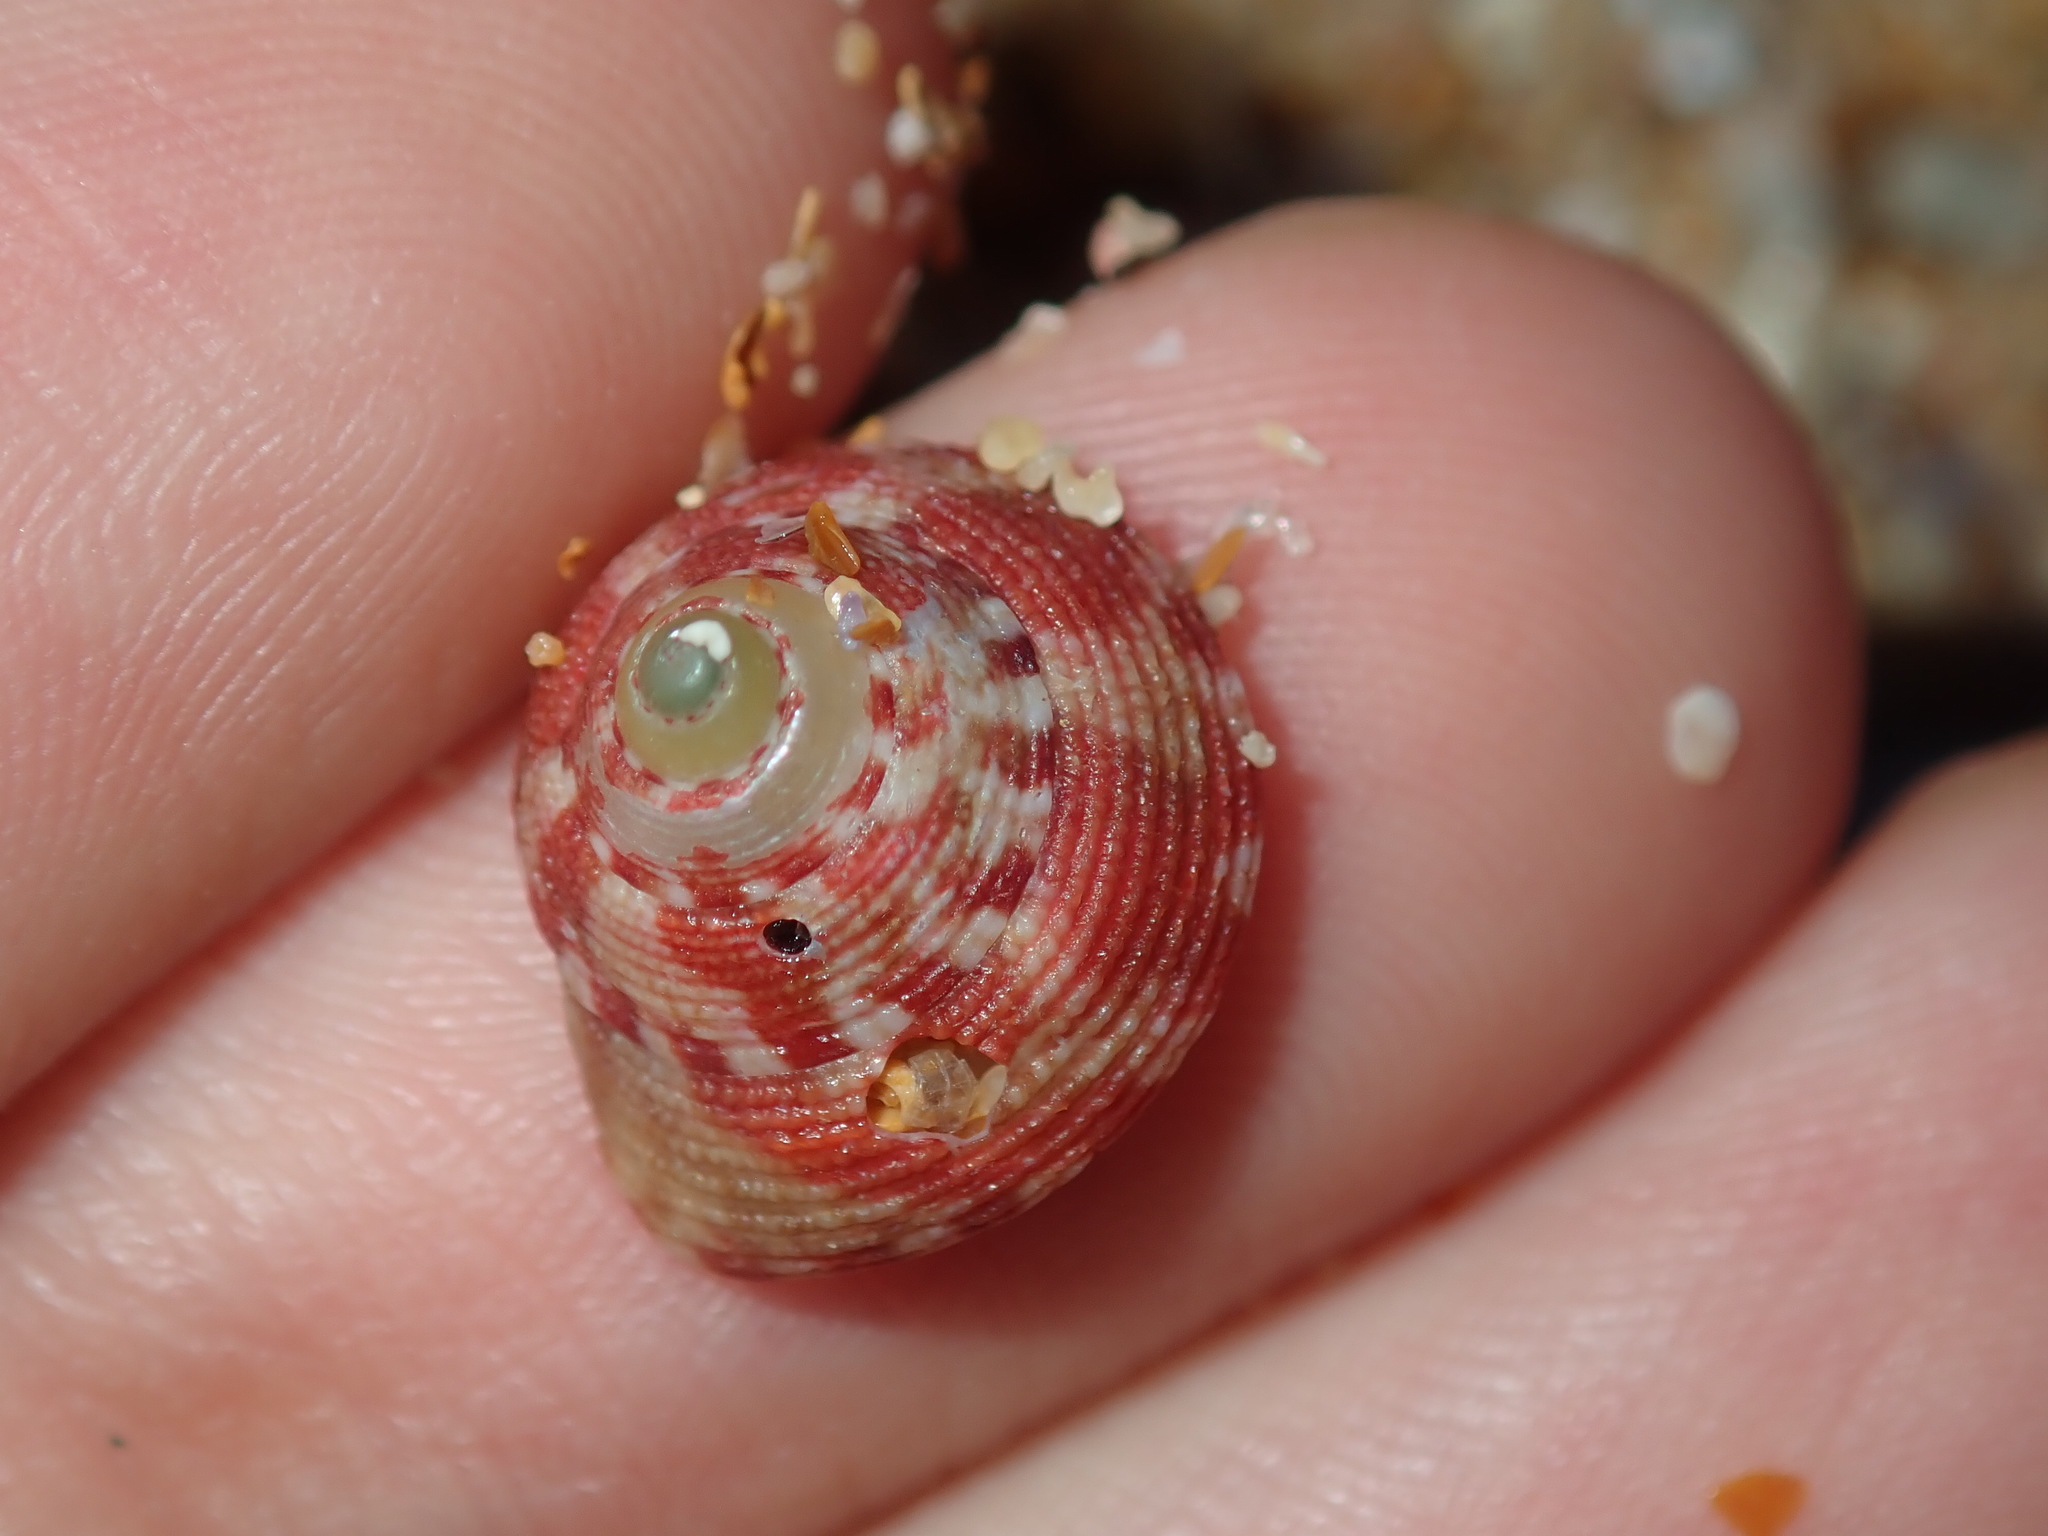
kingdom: Animalia
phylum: Mollusca
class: Gastropoda
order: Trochida
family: Trochidae
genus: Clanculus
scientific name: Clanculus clangulus
